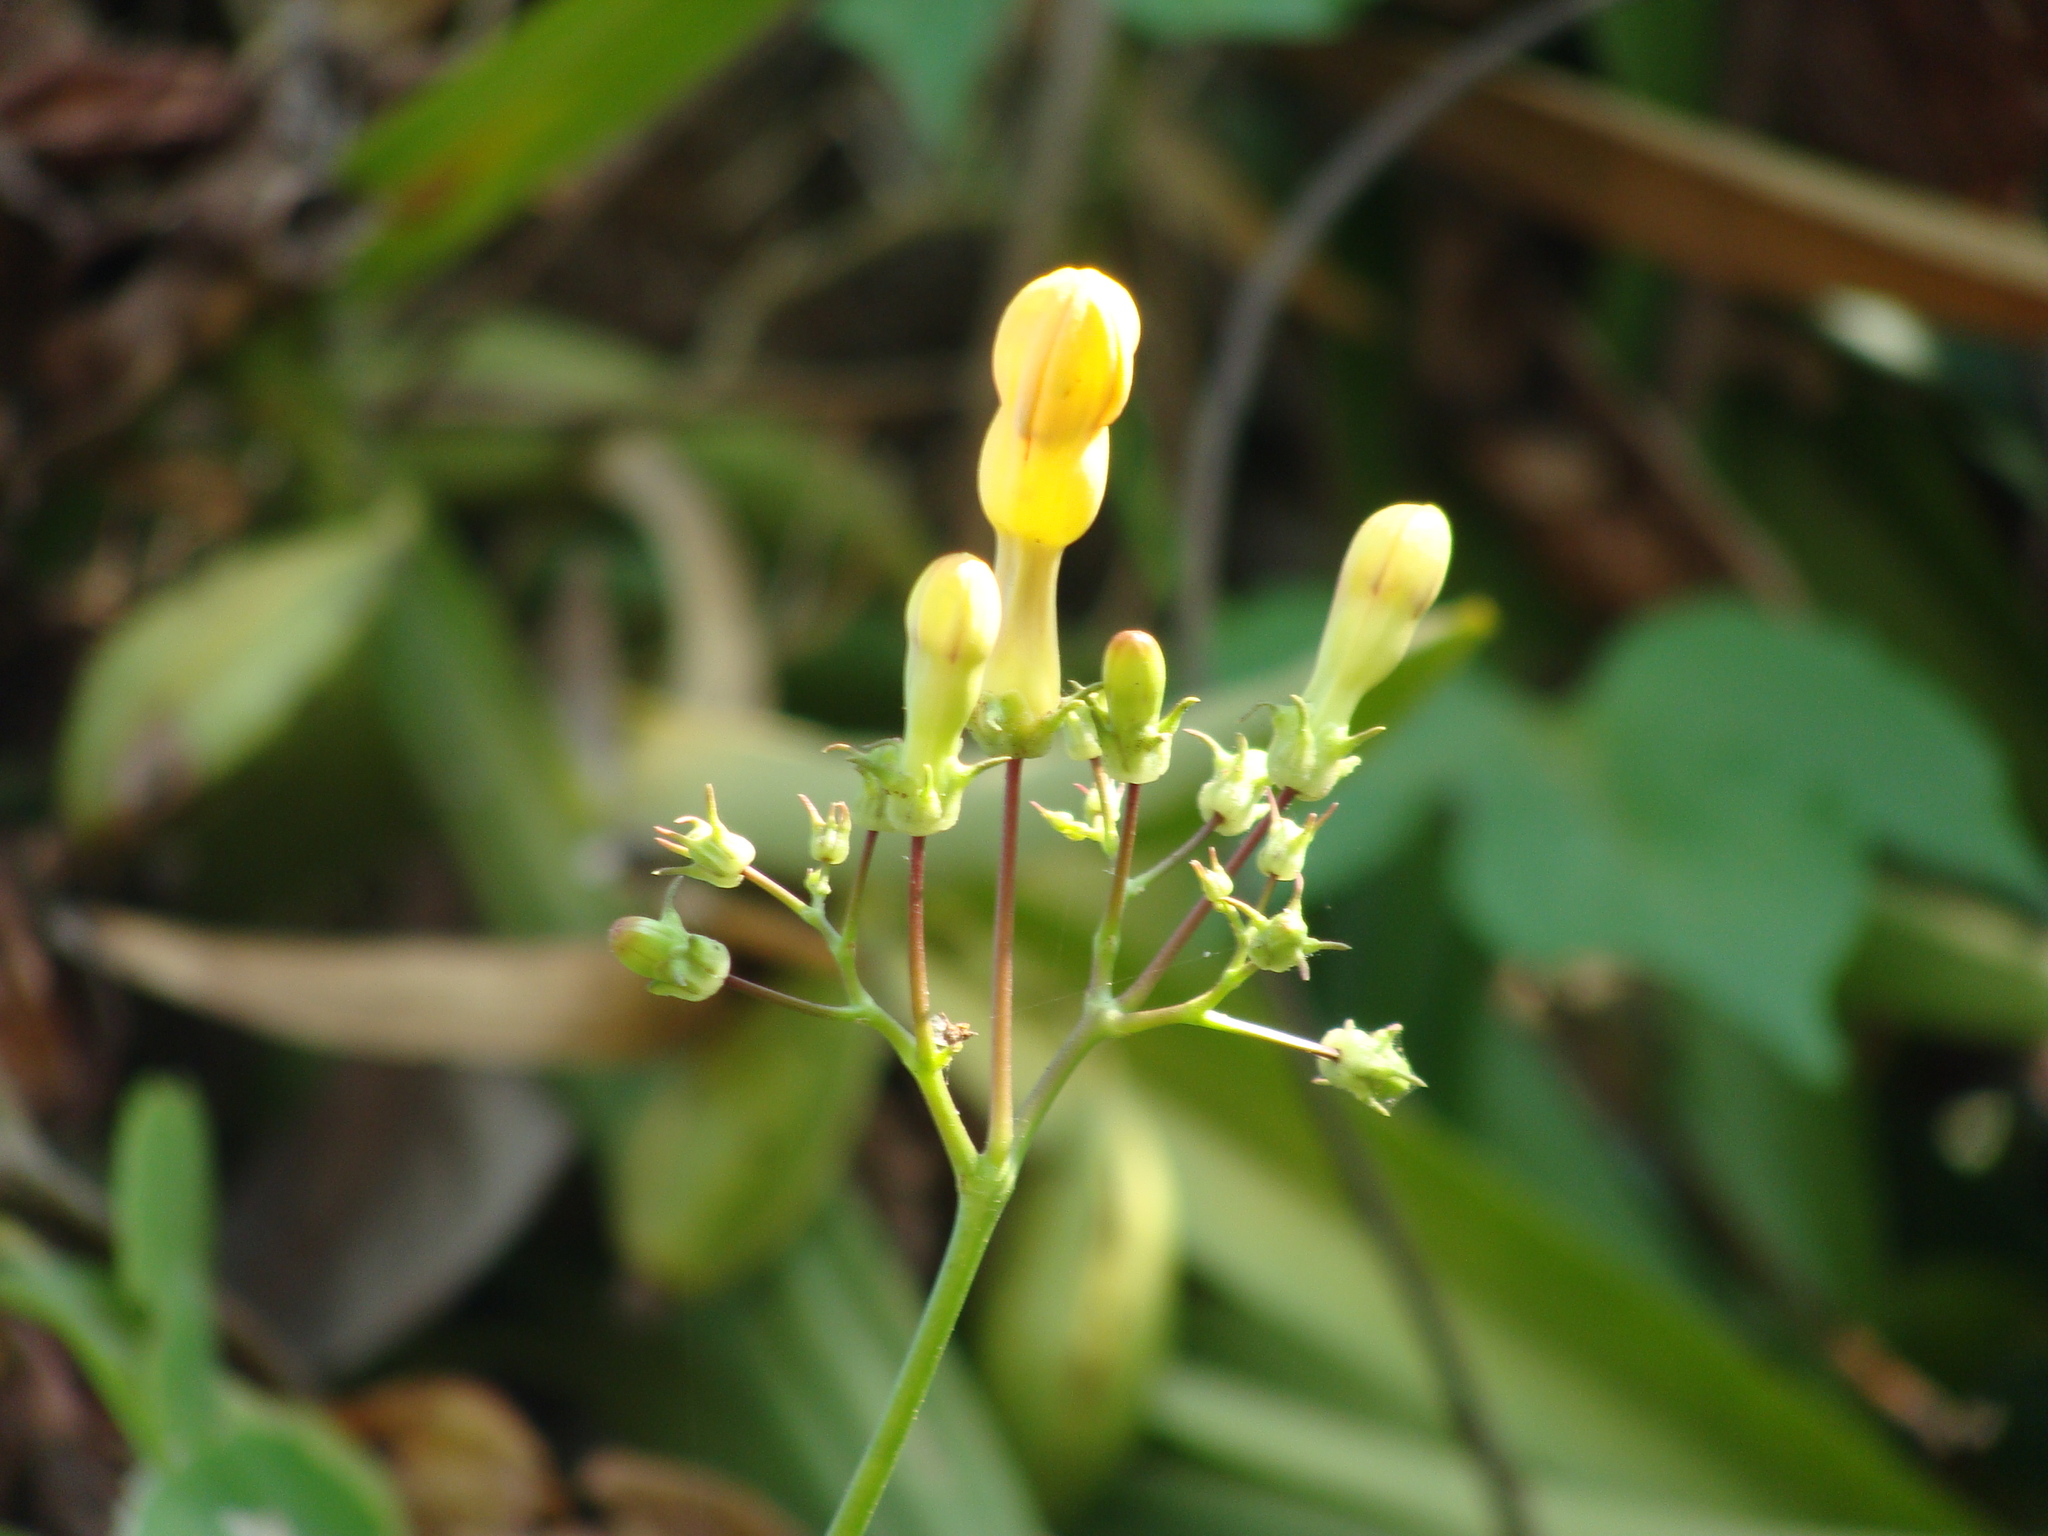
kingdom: Plantae
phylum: Tracheophyta
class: Magnoliopsida
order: Solanales
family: Convolvulaceae
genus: Ipomoea
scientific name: Ipomoea neei
